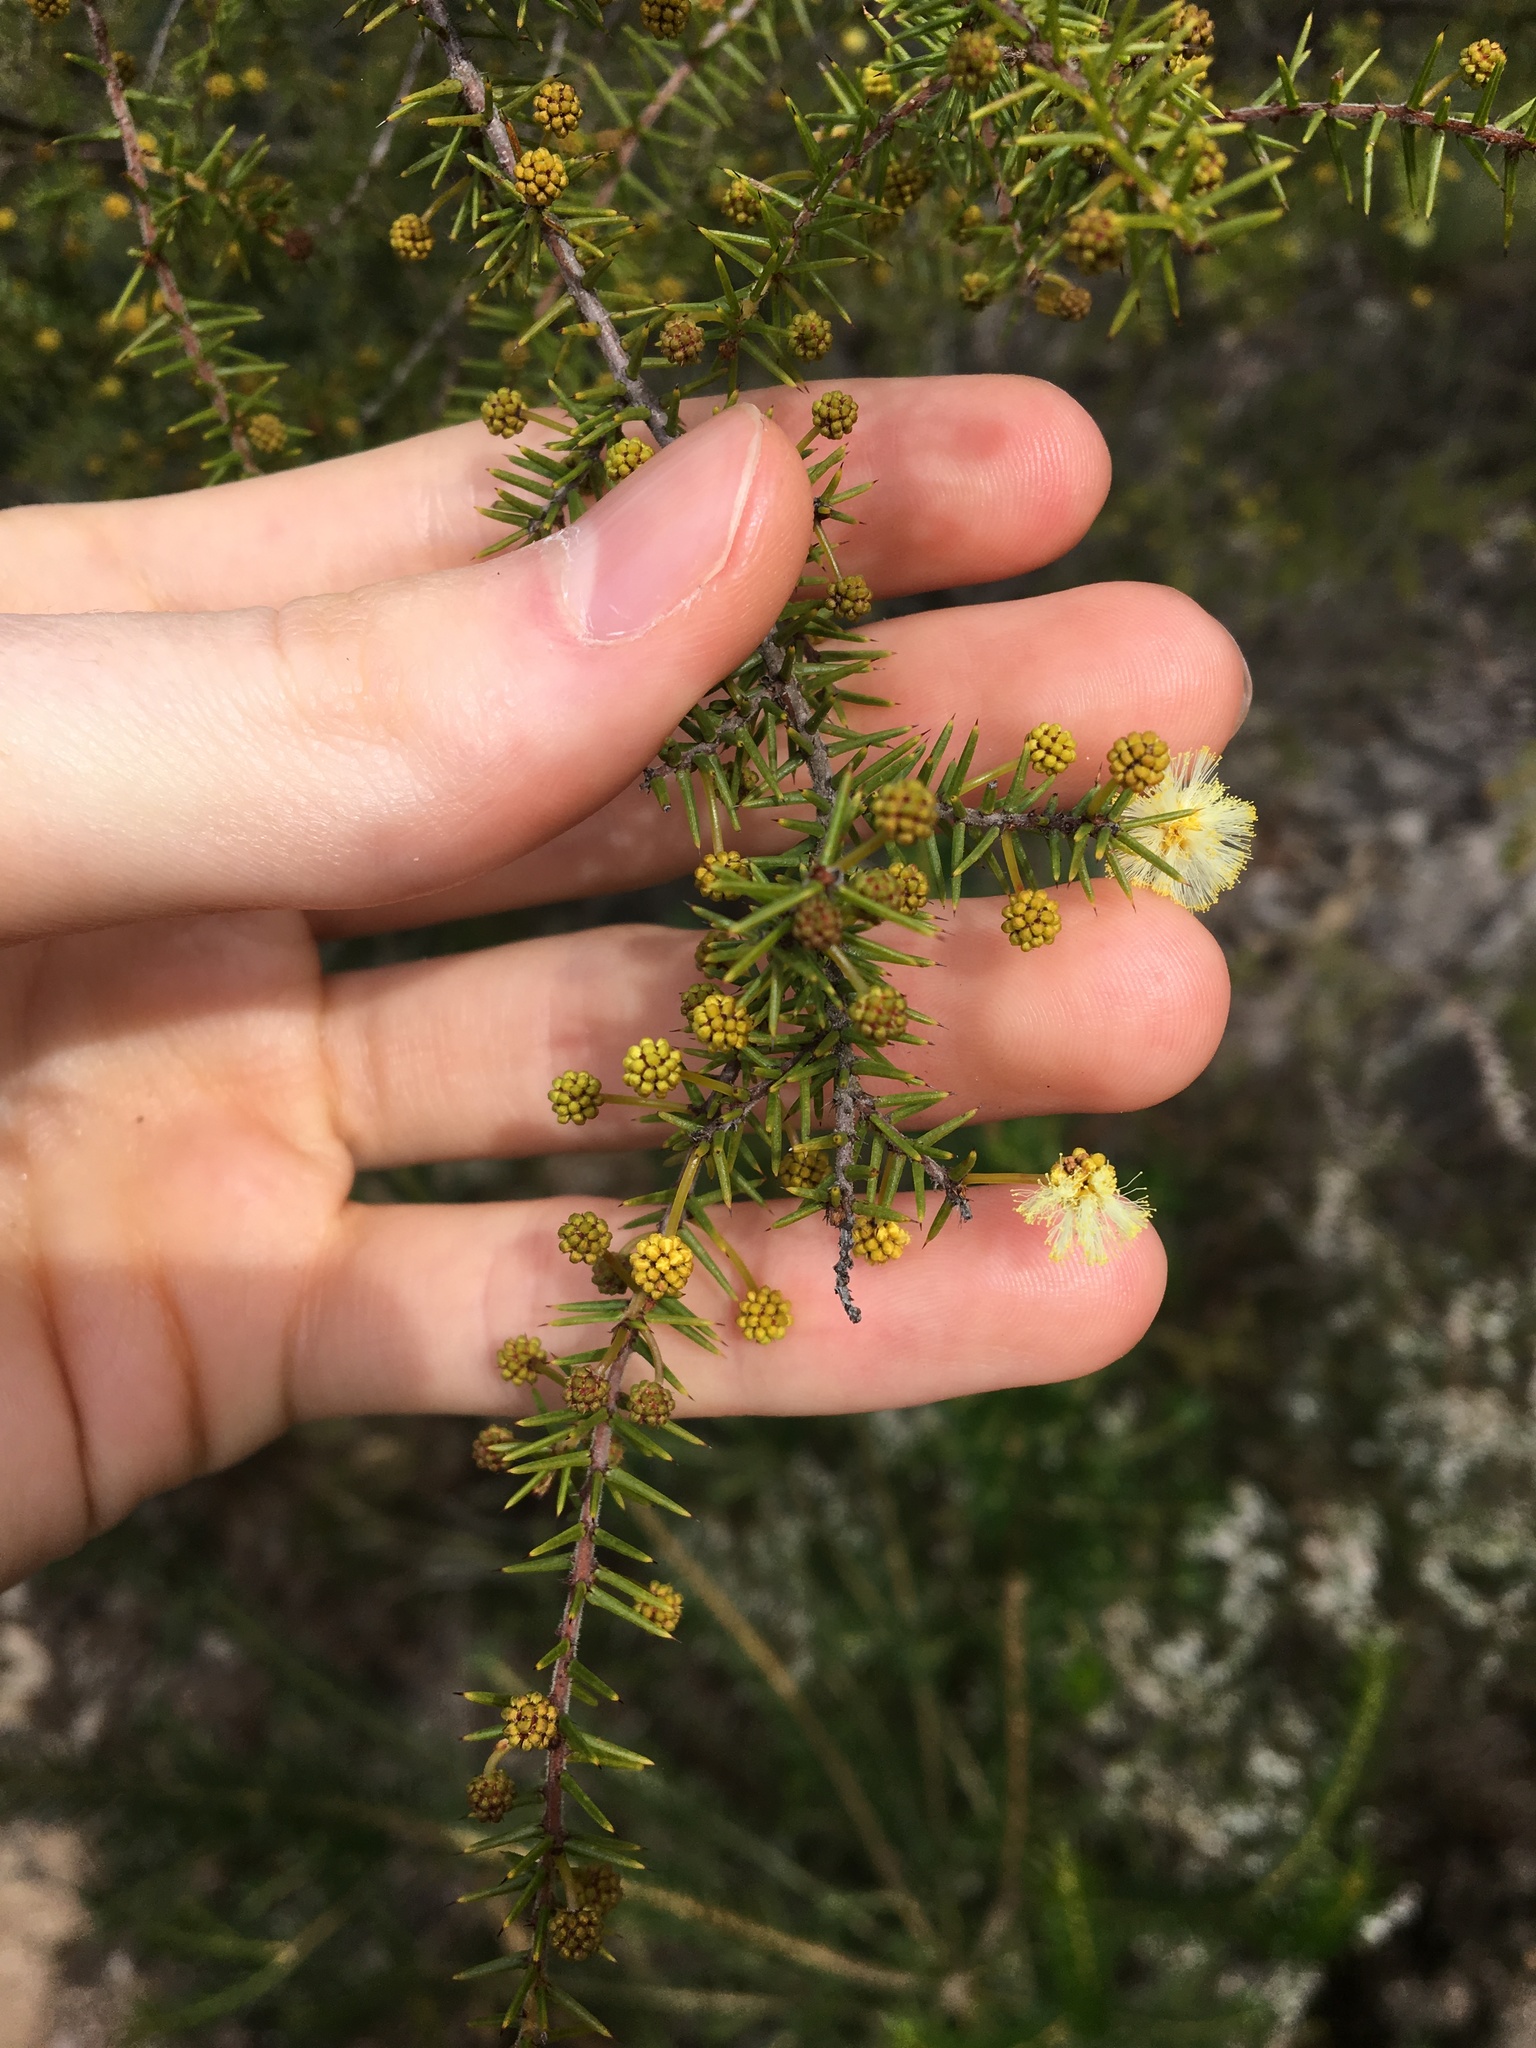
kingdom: Plantae
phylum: Tracheophyta
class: Magnoliopsida
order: Fabales
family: Fabaceae
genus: Acacia
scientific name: Acacia ulicifolia
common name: Juniper wattle
